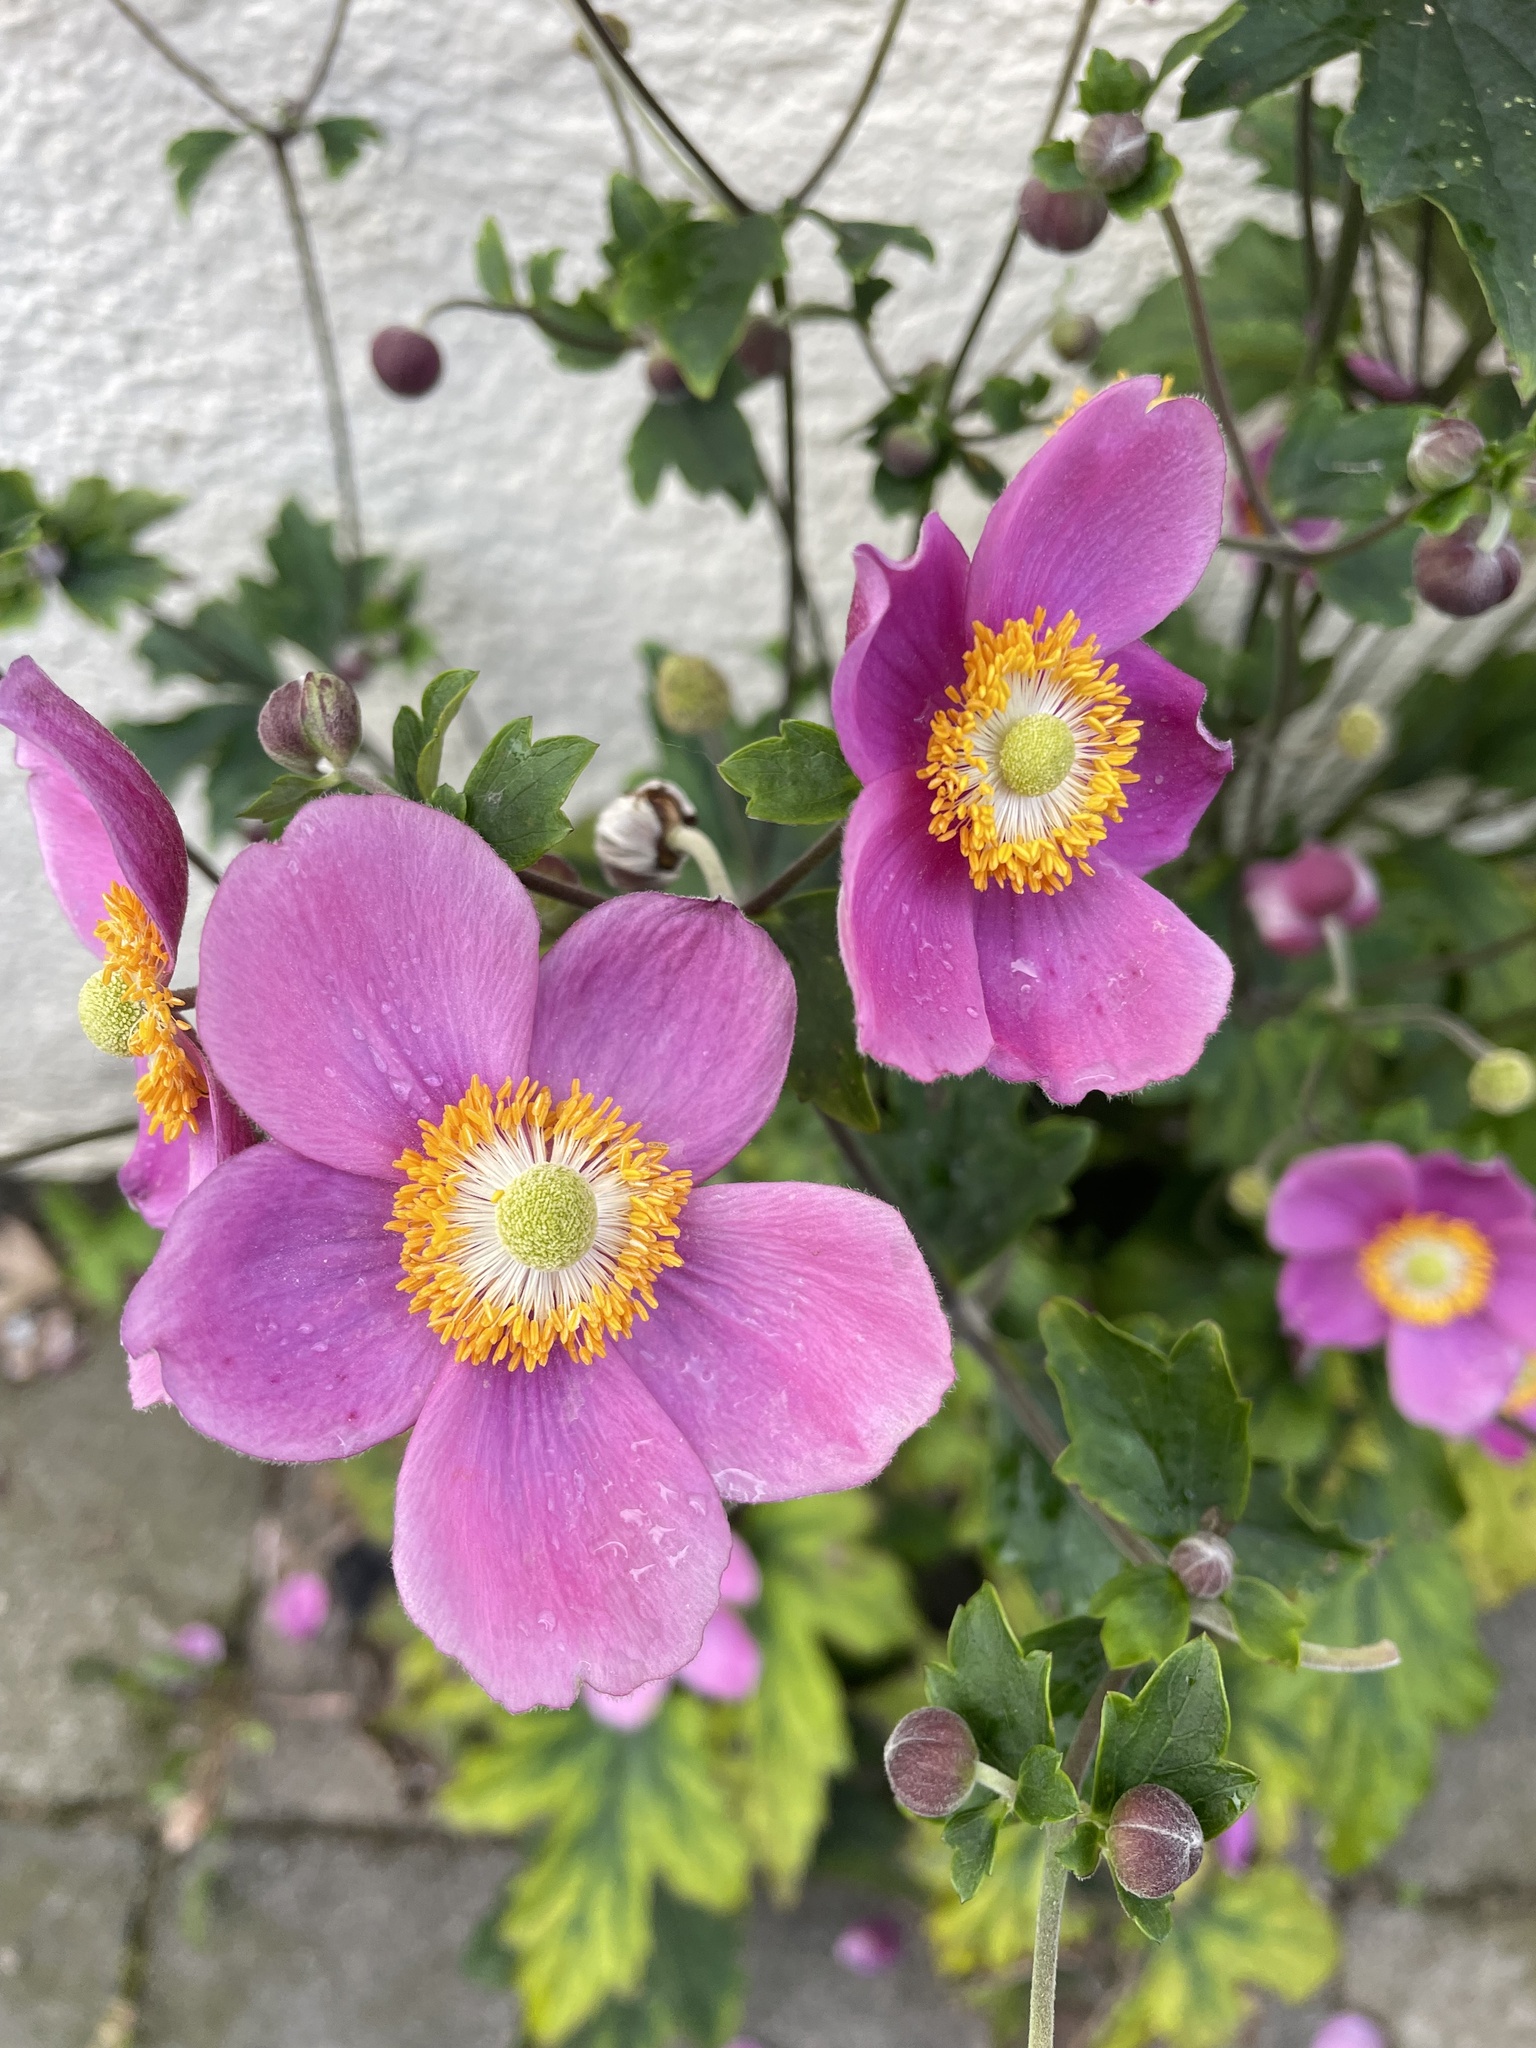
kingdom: Plantae
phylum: Tracheophyta
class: Magnoliopsida
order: Ranunculales
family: Ranunculaceae
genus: Eriocapitella
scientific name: Eriocapitella hupehensis
